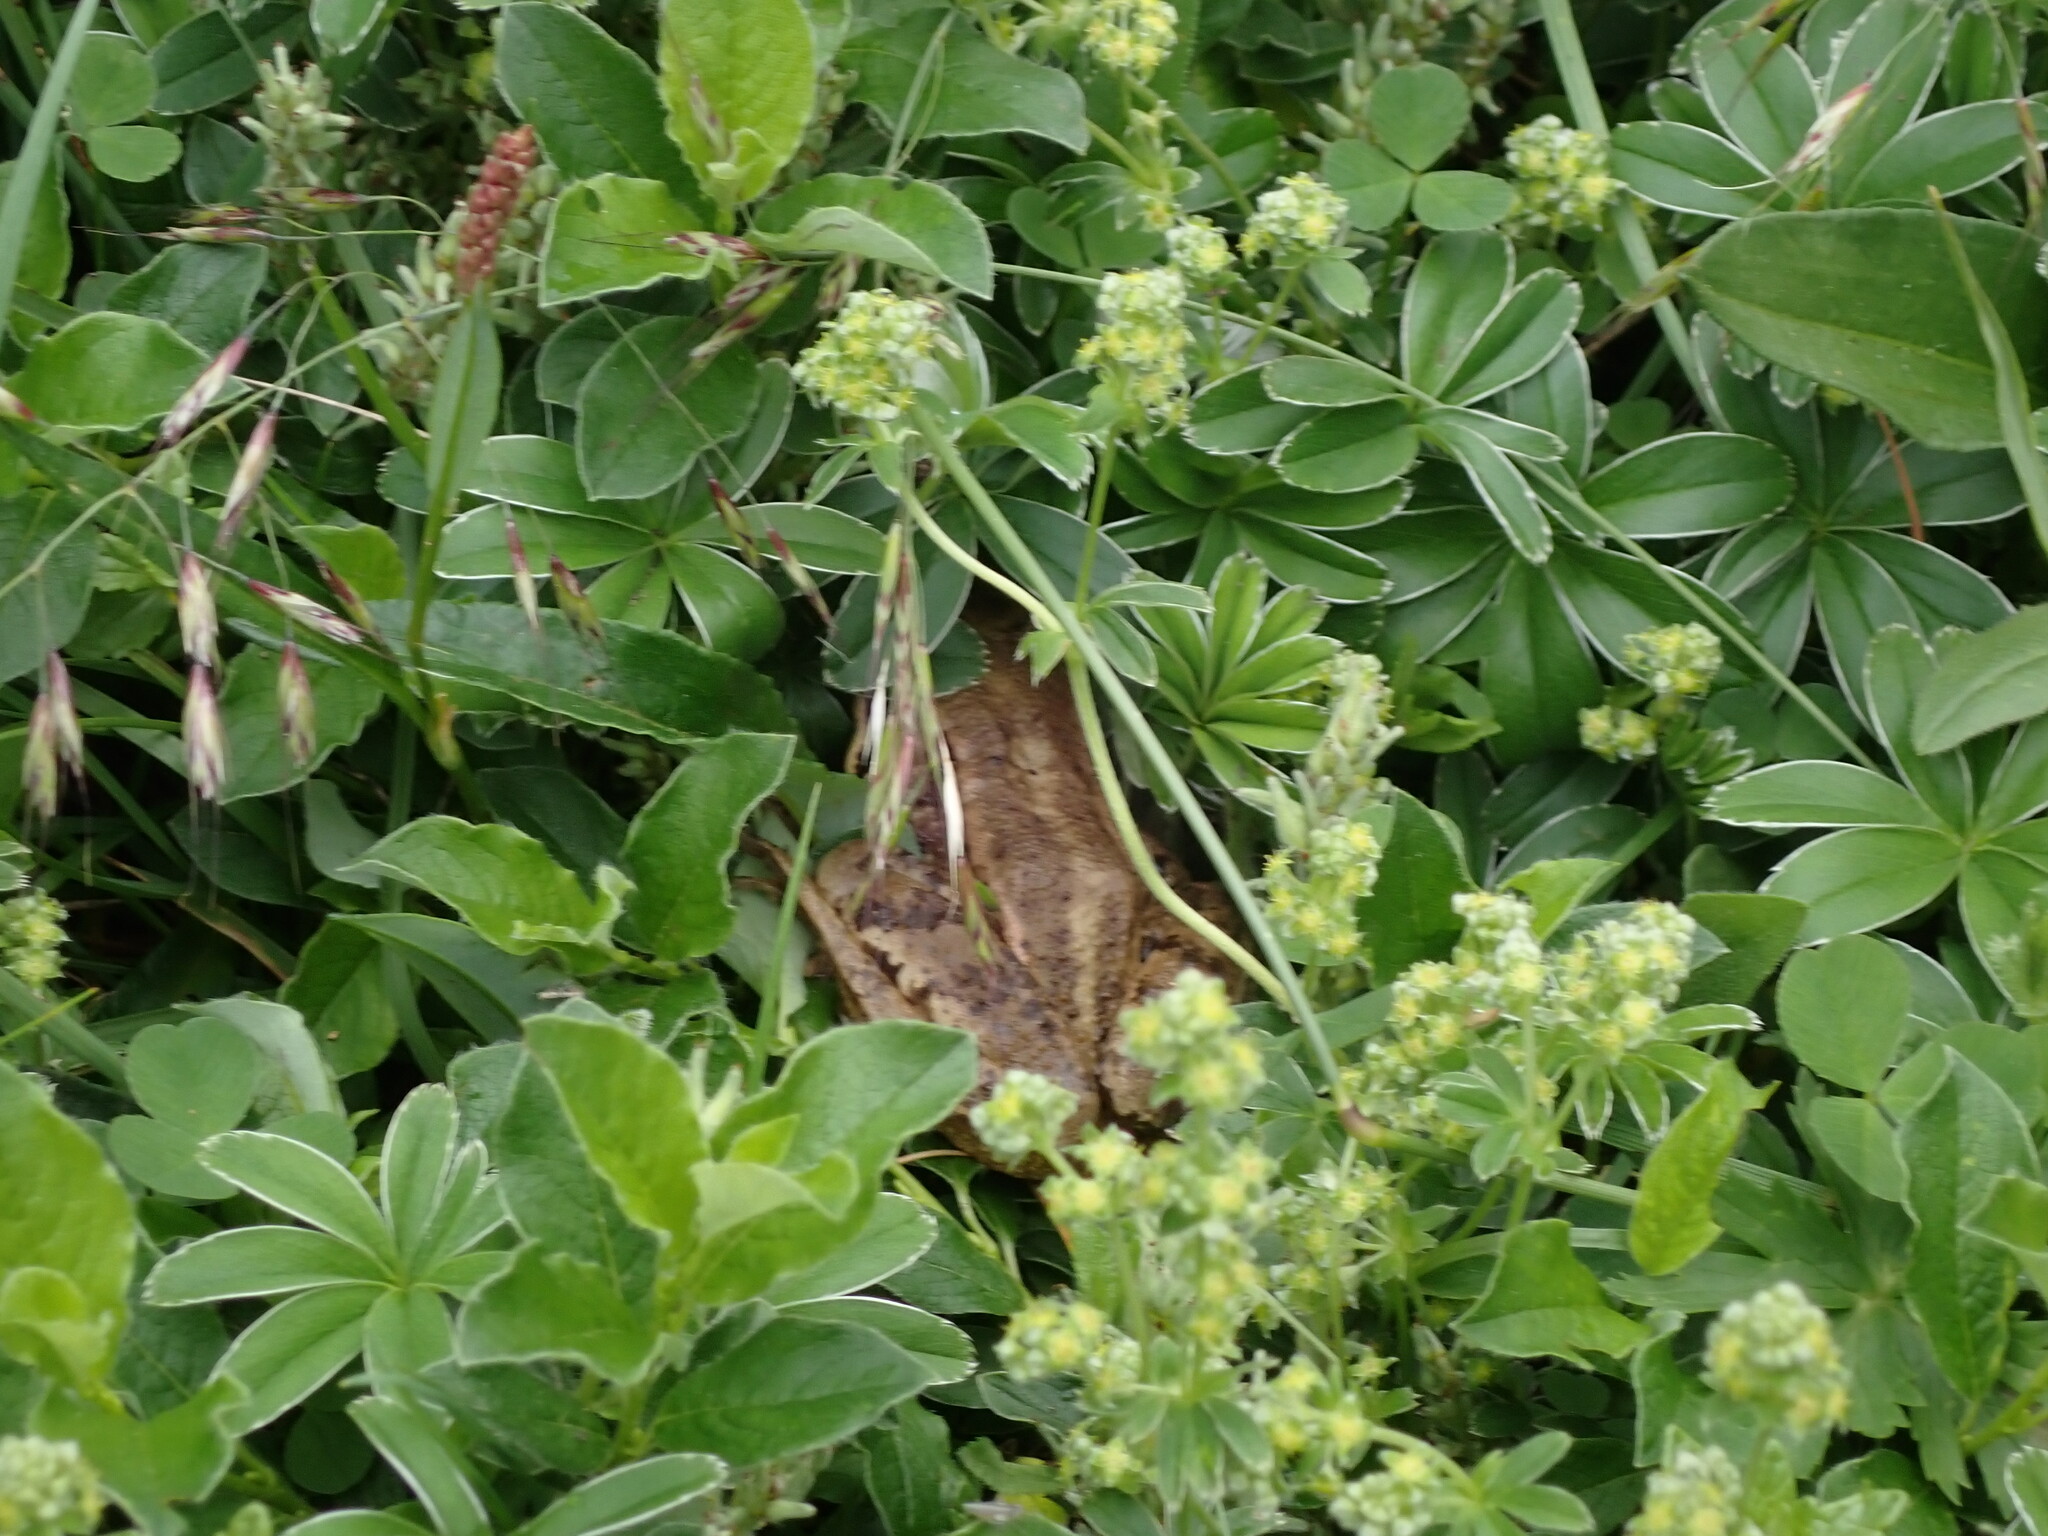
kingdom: Animalia
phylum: Chordata
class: Amphibia
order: Anura
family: Ranidae
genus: Rana
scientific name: Rana temporaria
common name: Common frog
